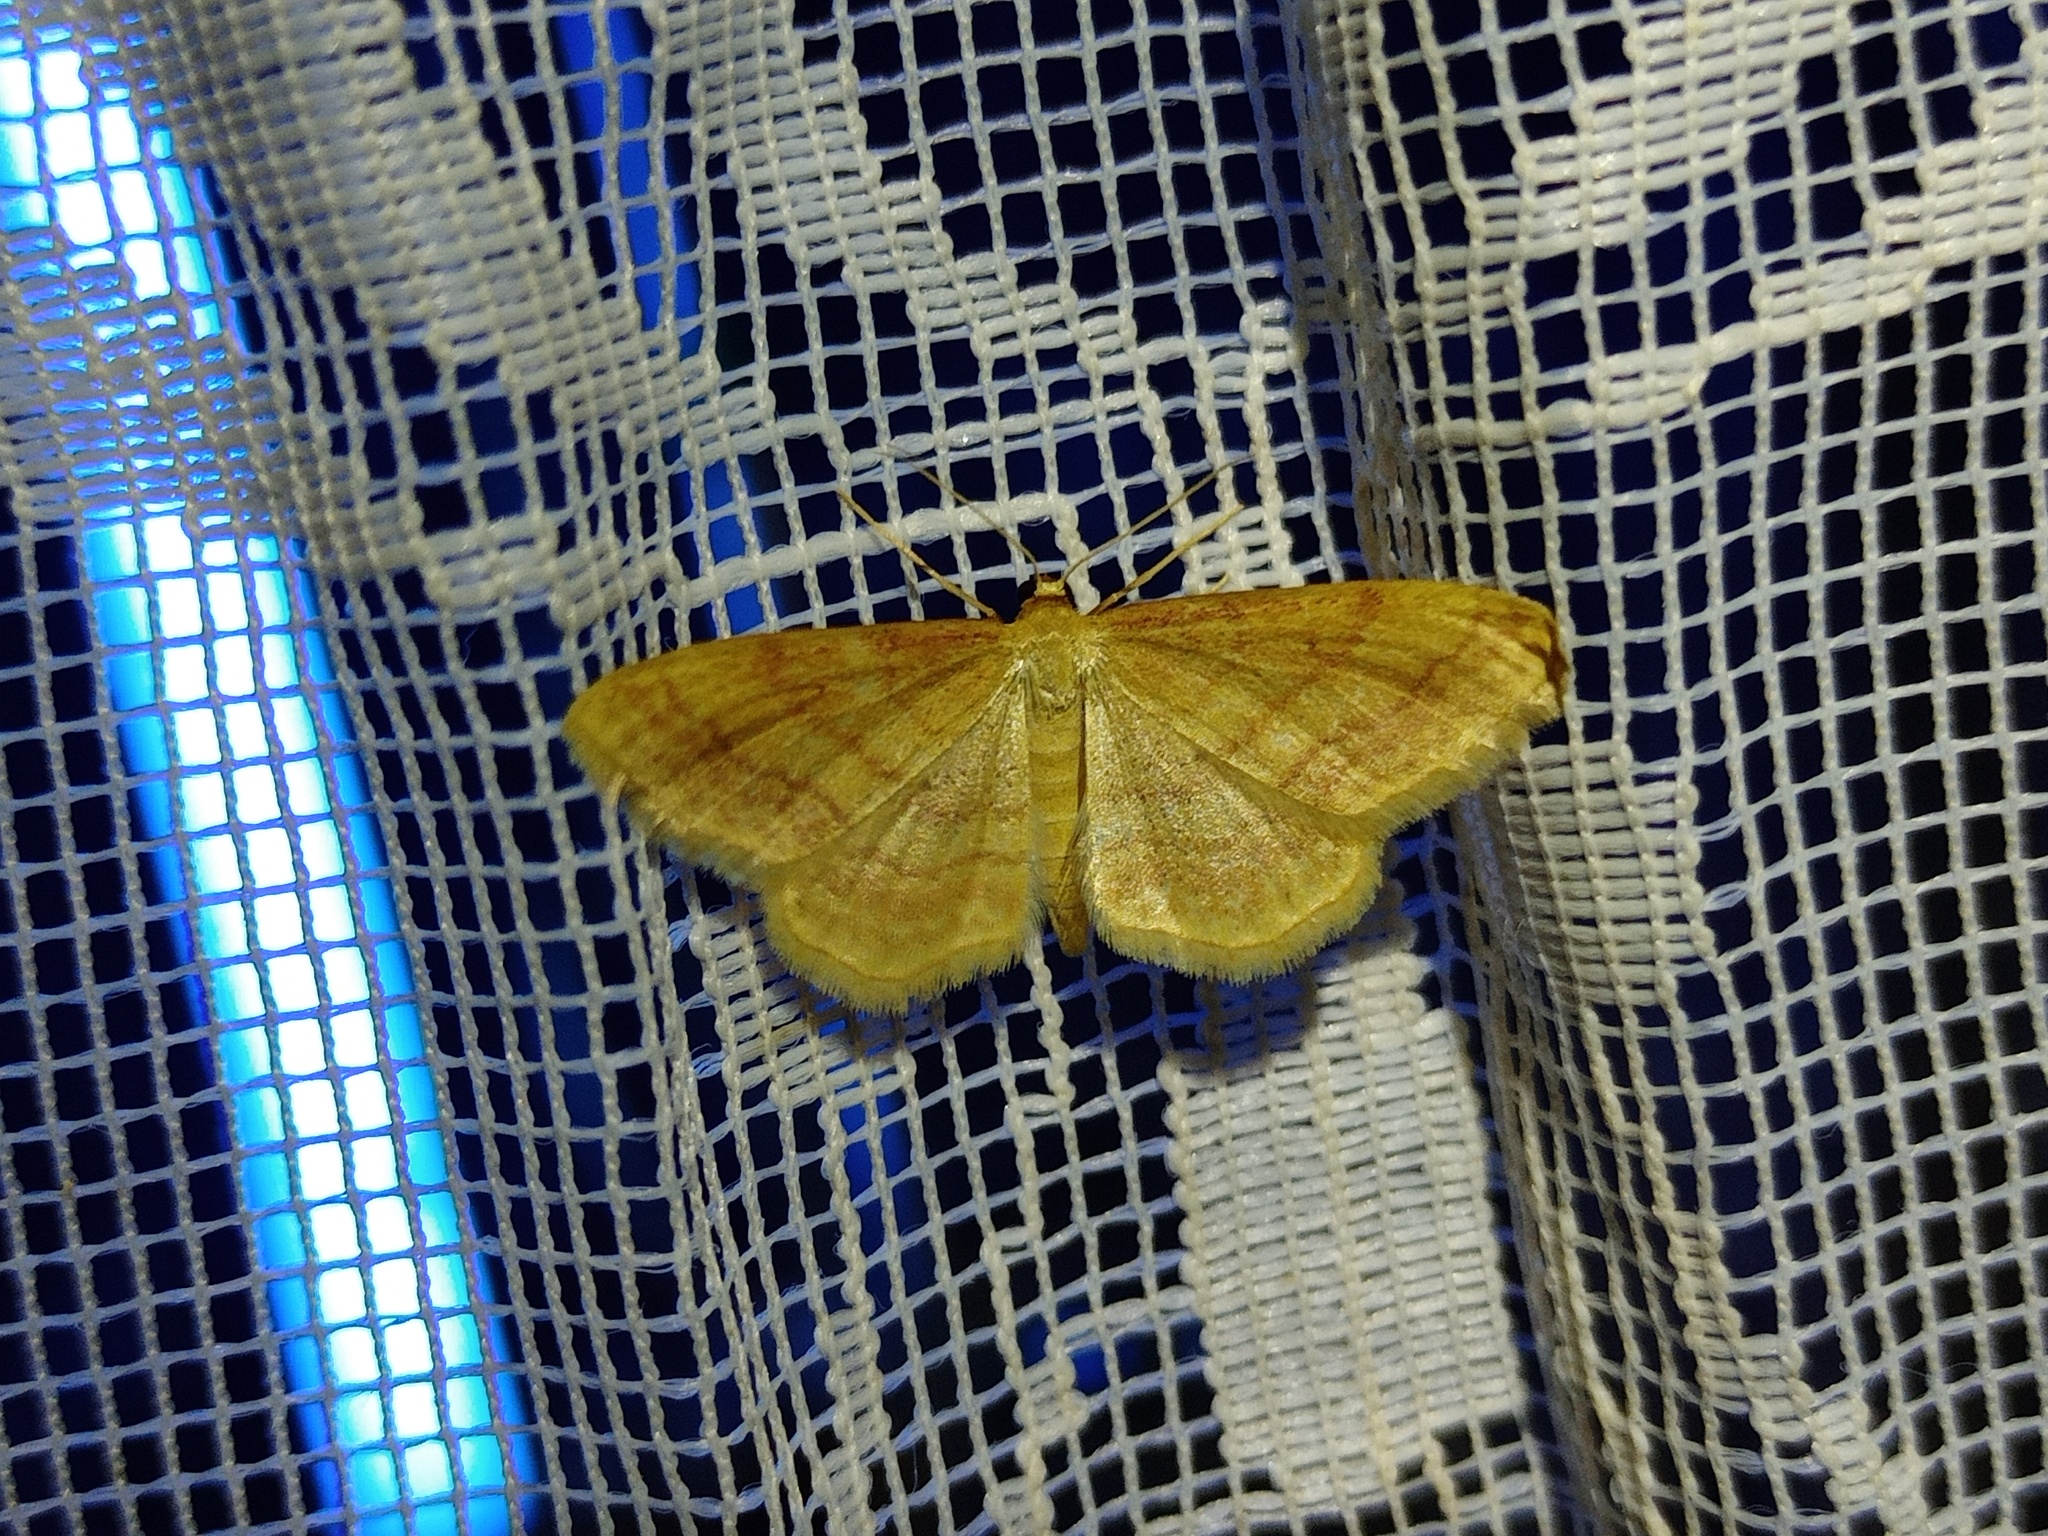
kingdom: Animalia
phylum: Arthropoda
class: Insecta
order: Lepidoptera
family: Geometridae
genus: Idaea
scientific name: Idaea rufaria
